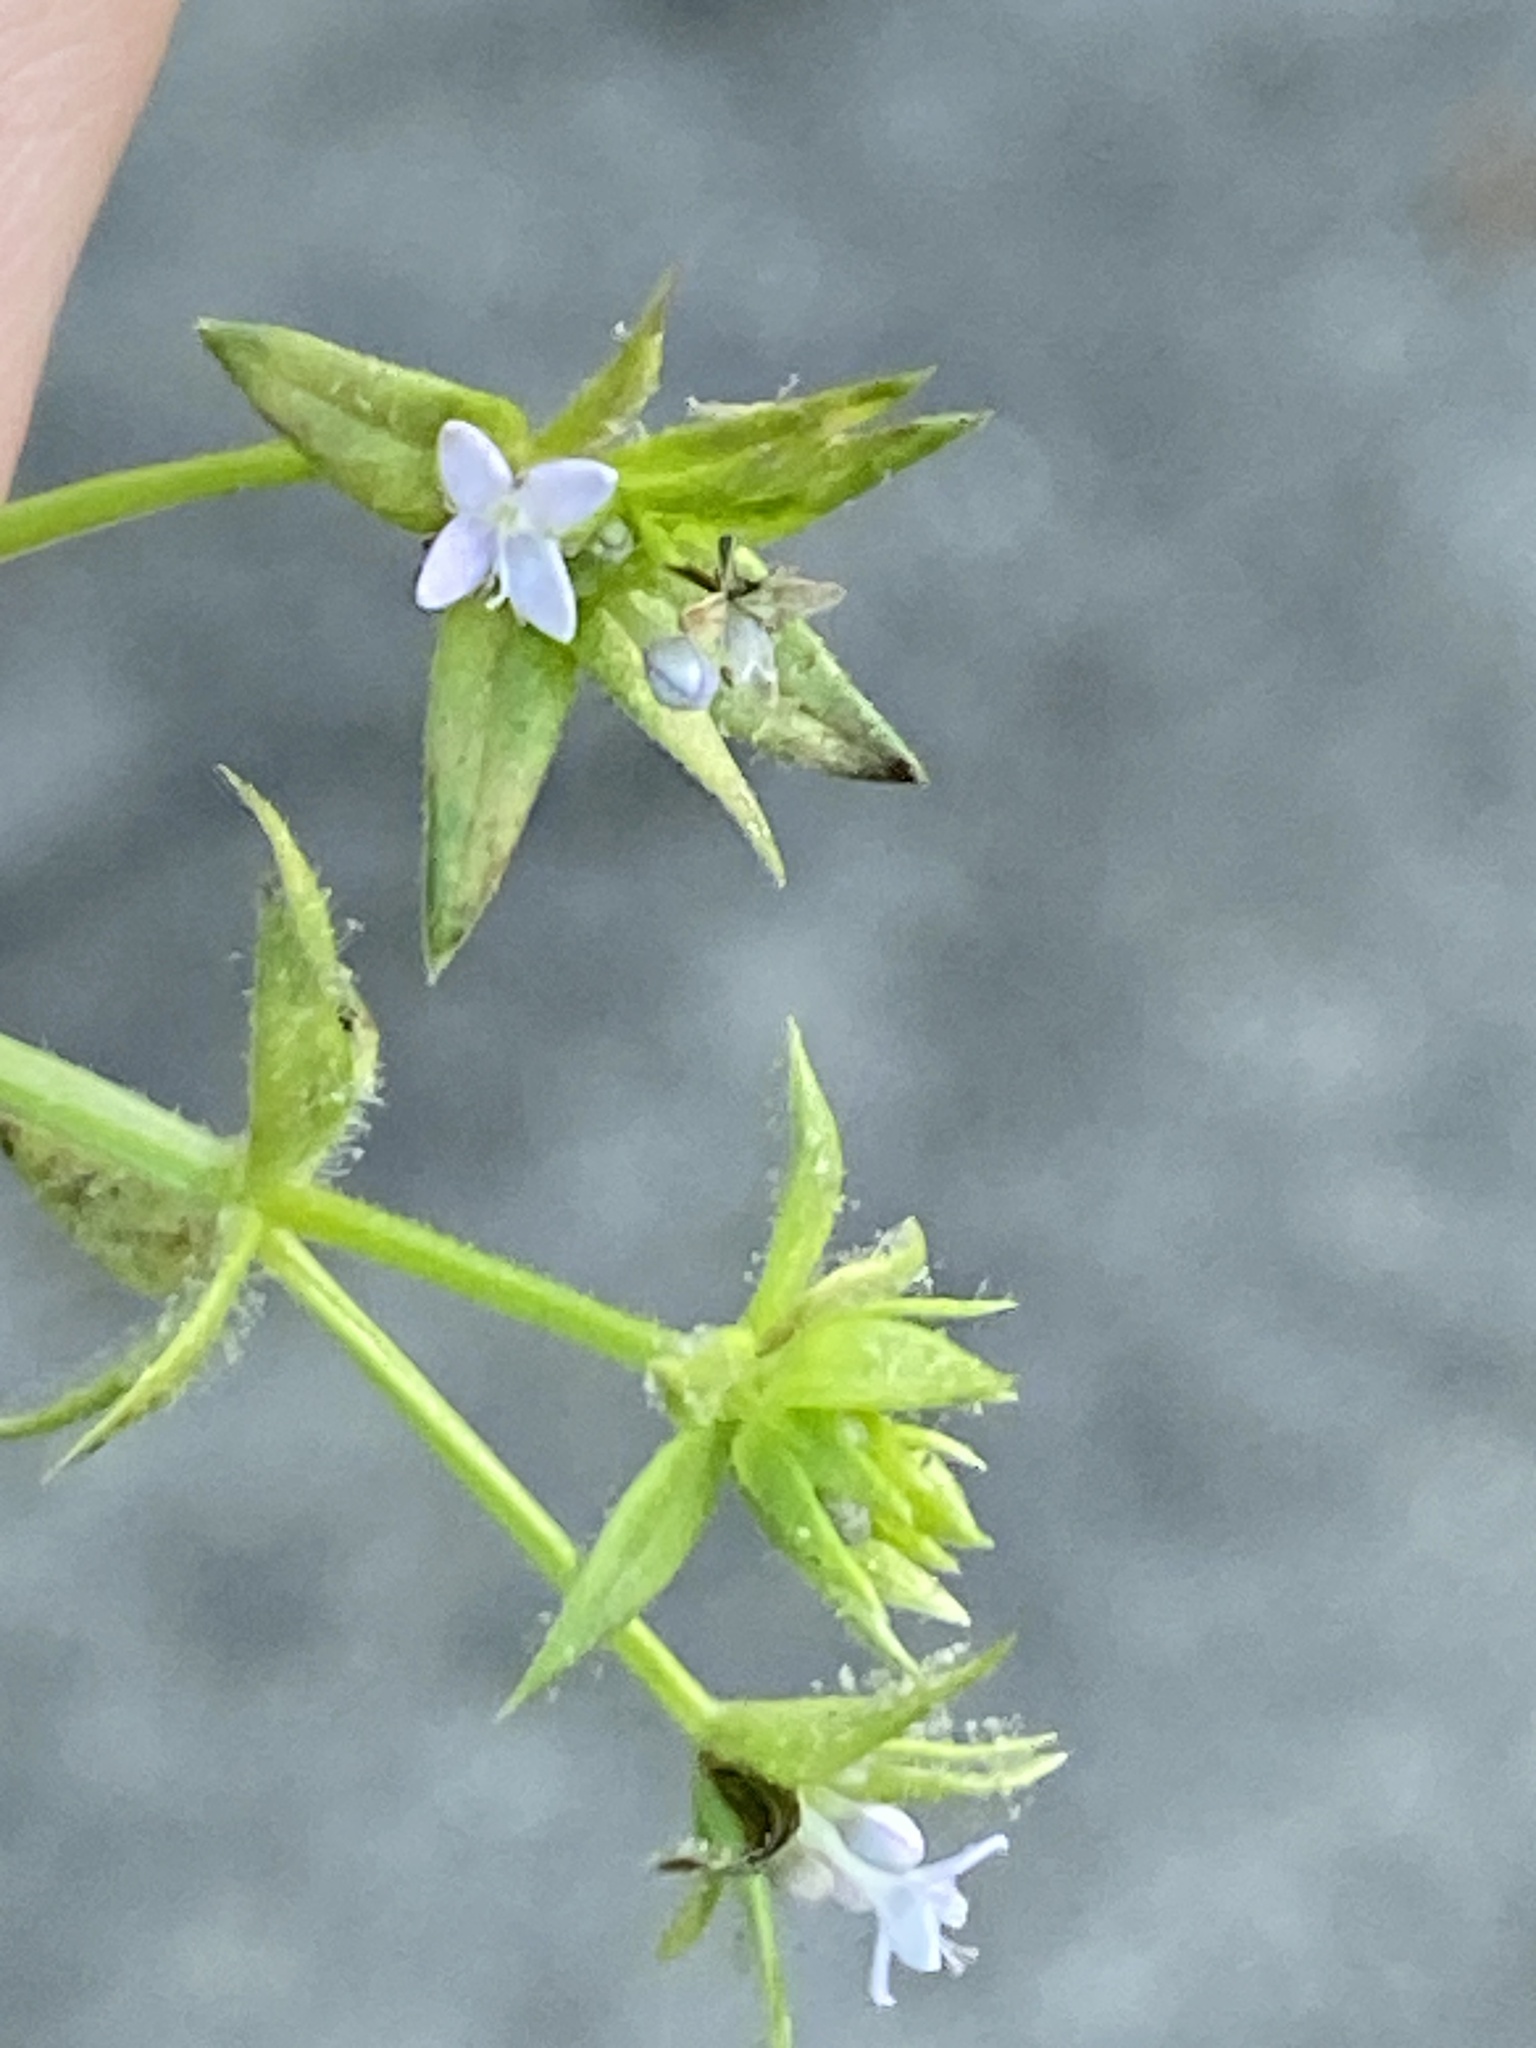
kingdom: Plantae
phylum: Tracheophyta
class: Magnoliopsida
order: Gentianales
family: Rubiaceae
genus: Sherardia
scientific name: Sherardia arvensis
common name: Field madder
